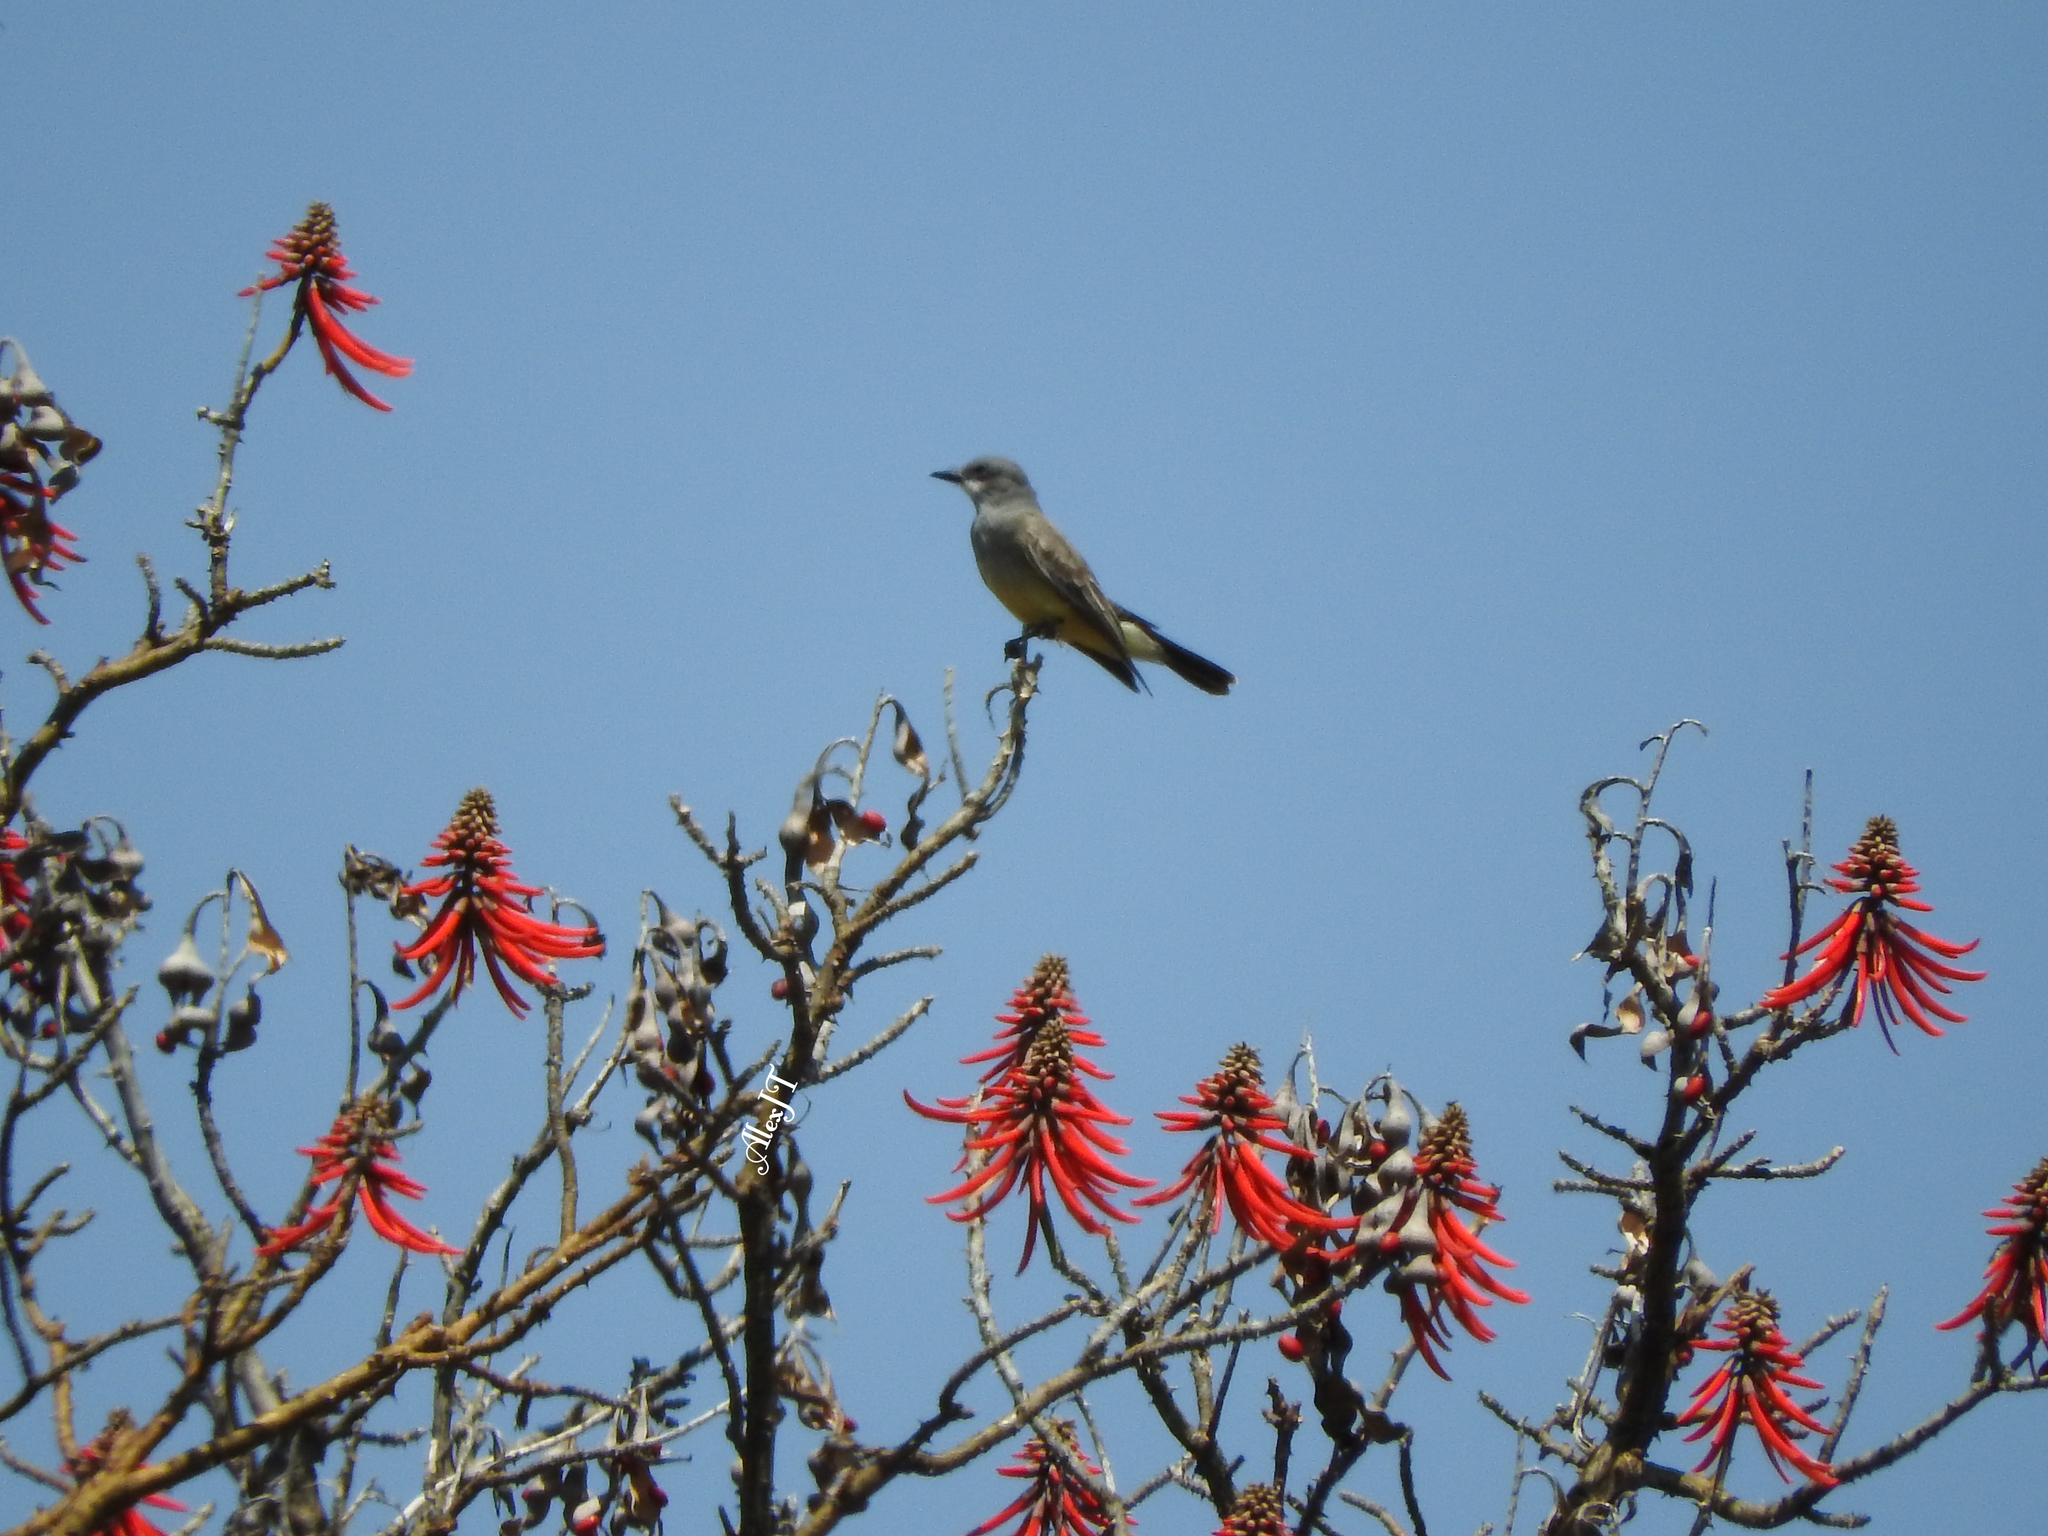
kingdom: Animalia
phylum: Chordata
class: Aves
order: Passeriformes
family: Tyrannidae
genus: Tyrannus
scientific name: Tyrannus vociferans
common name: Cassin's kingbird
